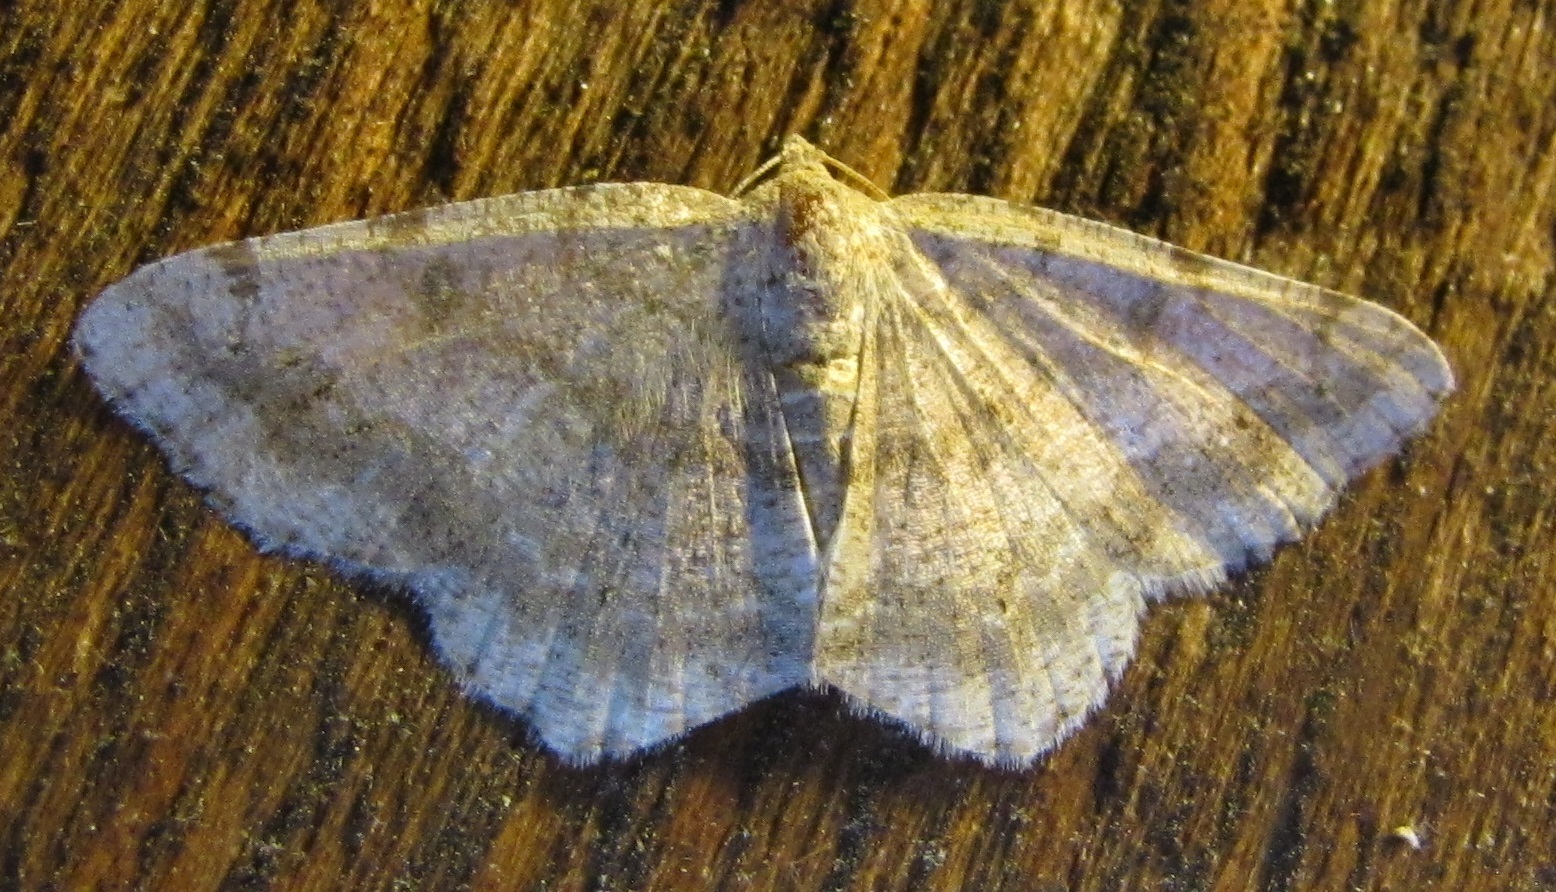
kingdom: Animalia
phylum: Arthropoda
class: Insecta
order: Lepidoptera
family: Geometridae
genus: Digrammia
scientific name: Digrammia ocellinata
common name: Faint-spotted angle
